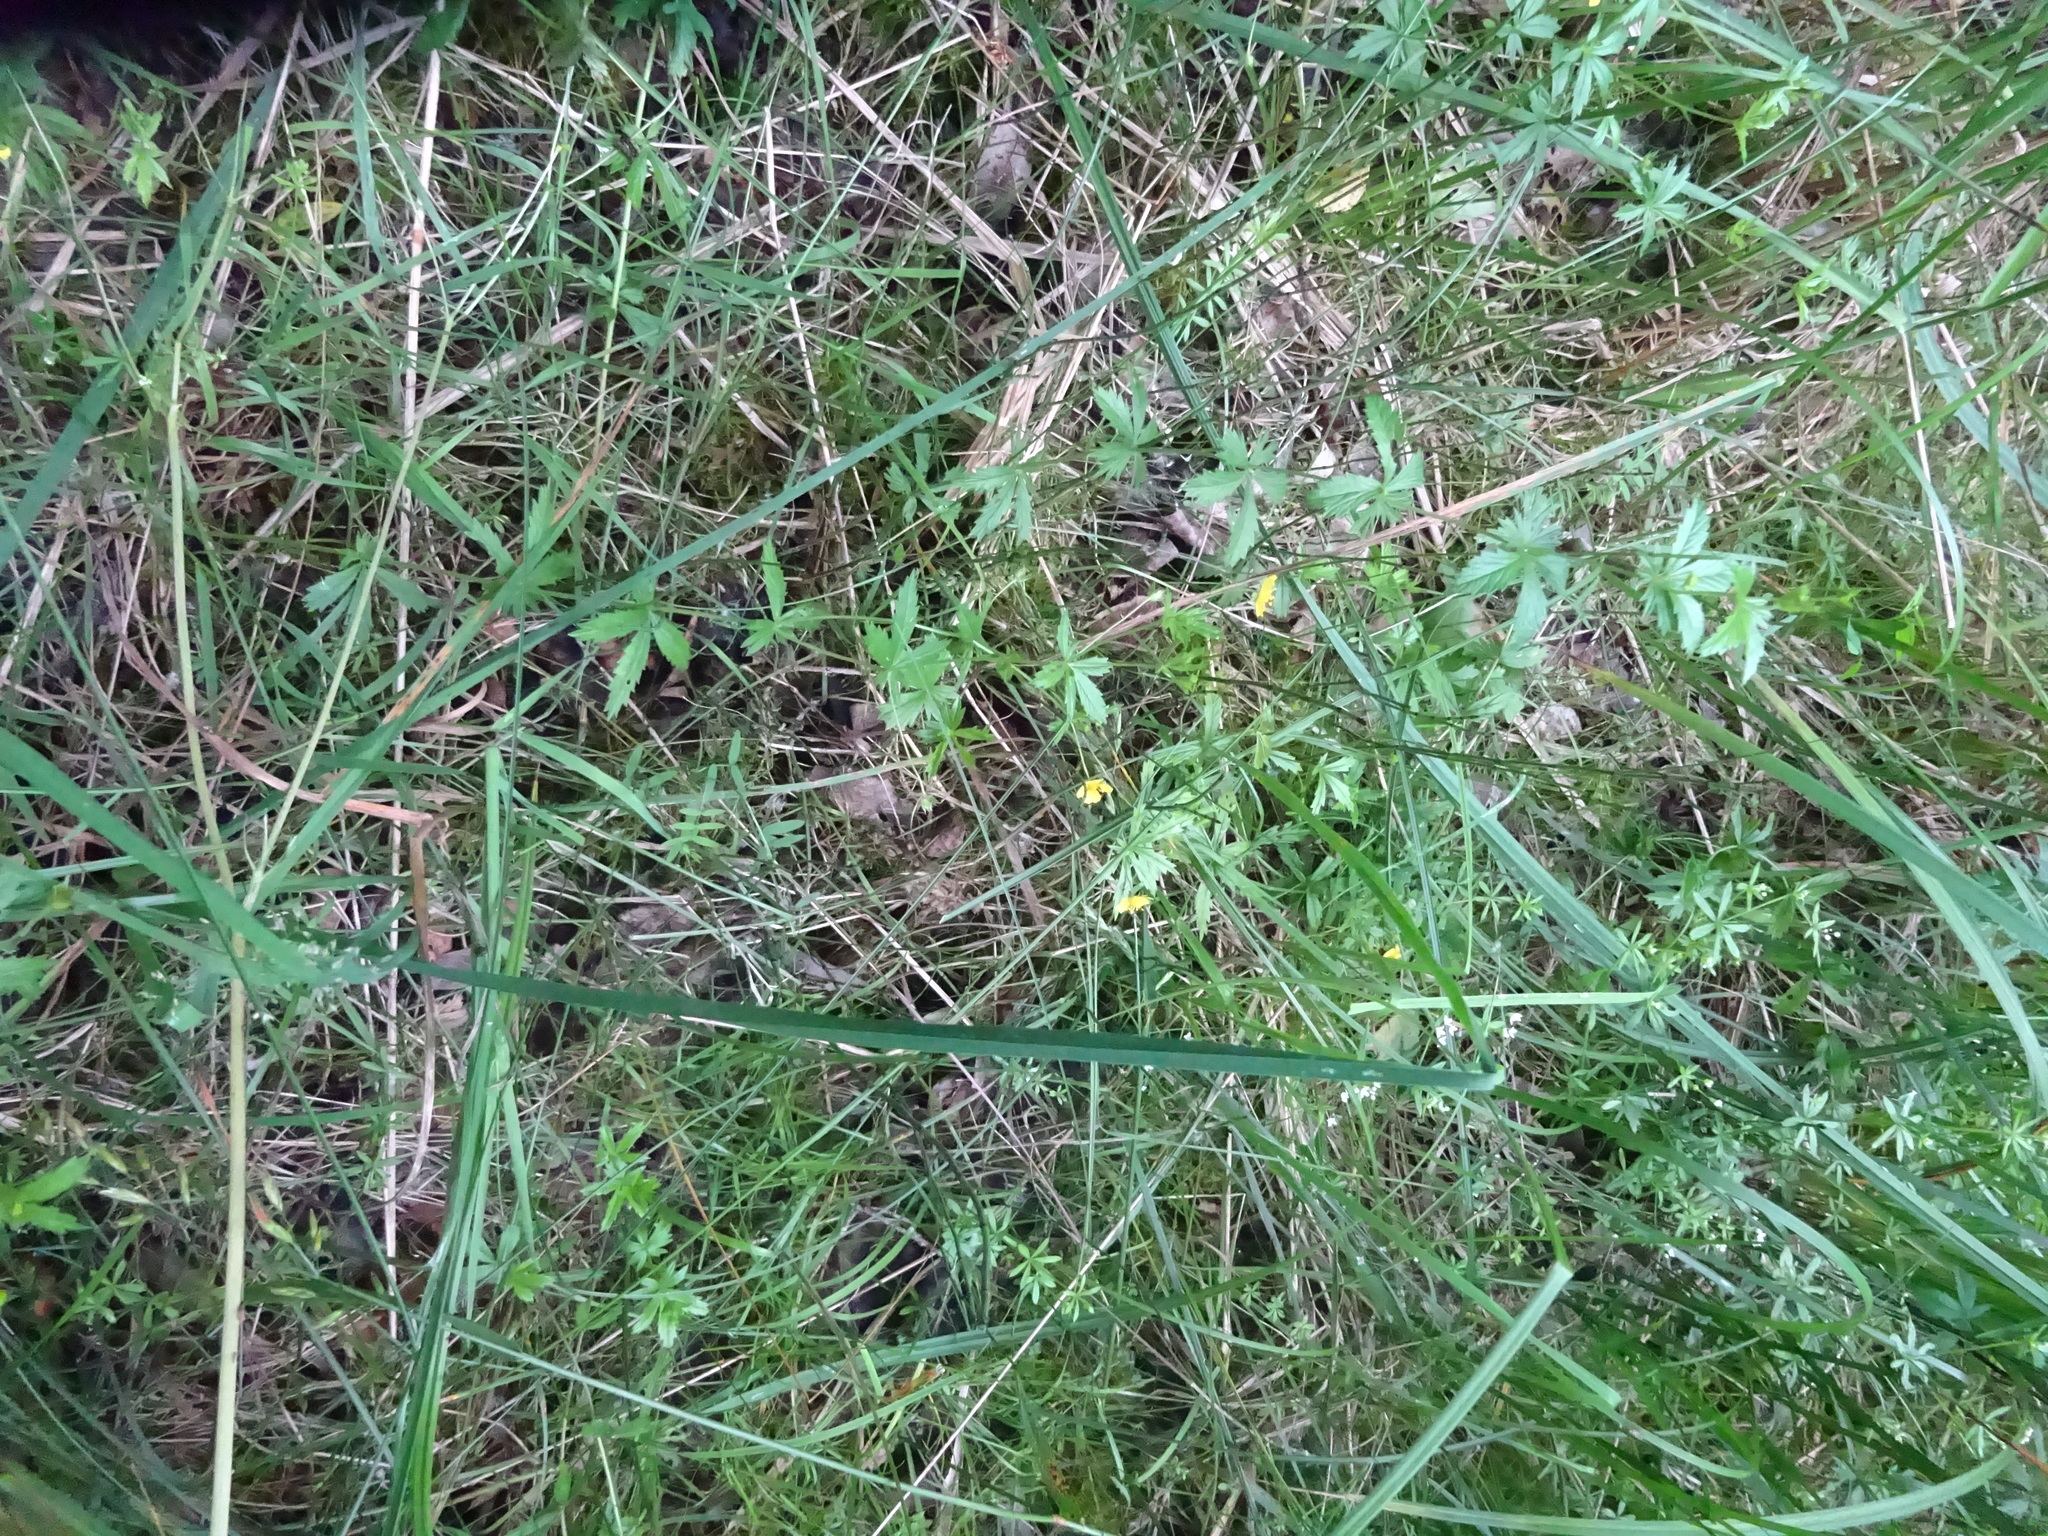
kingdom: Plantae
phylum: Tracheophyta
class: Magnoliopsida
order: Rosales
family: Rosaceae
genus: Potentilla
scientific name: Potentilla erecta
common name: Tormentil
